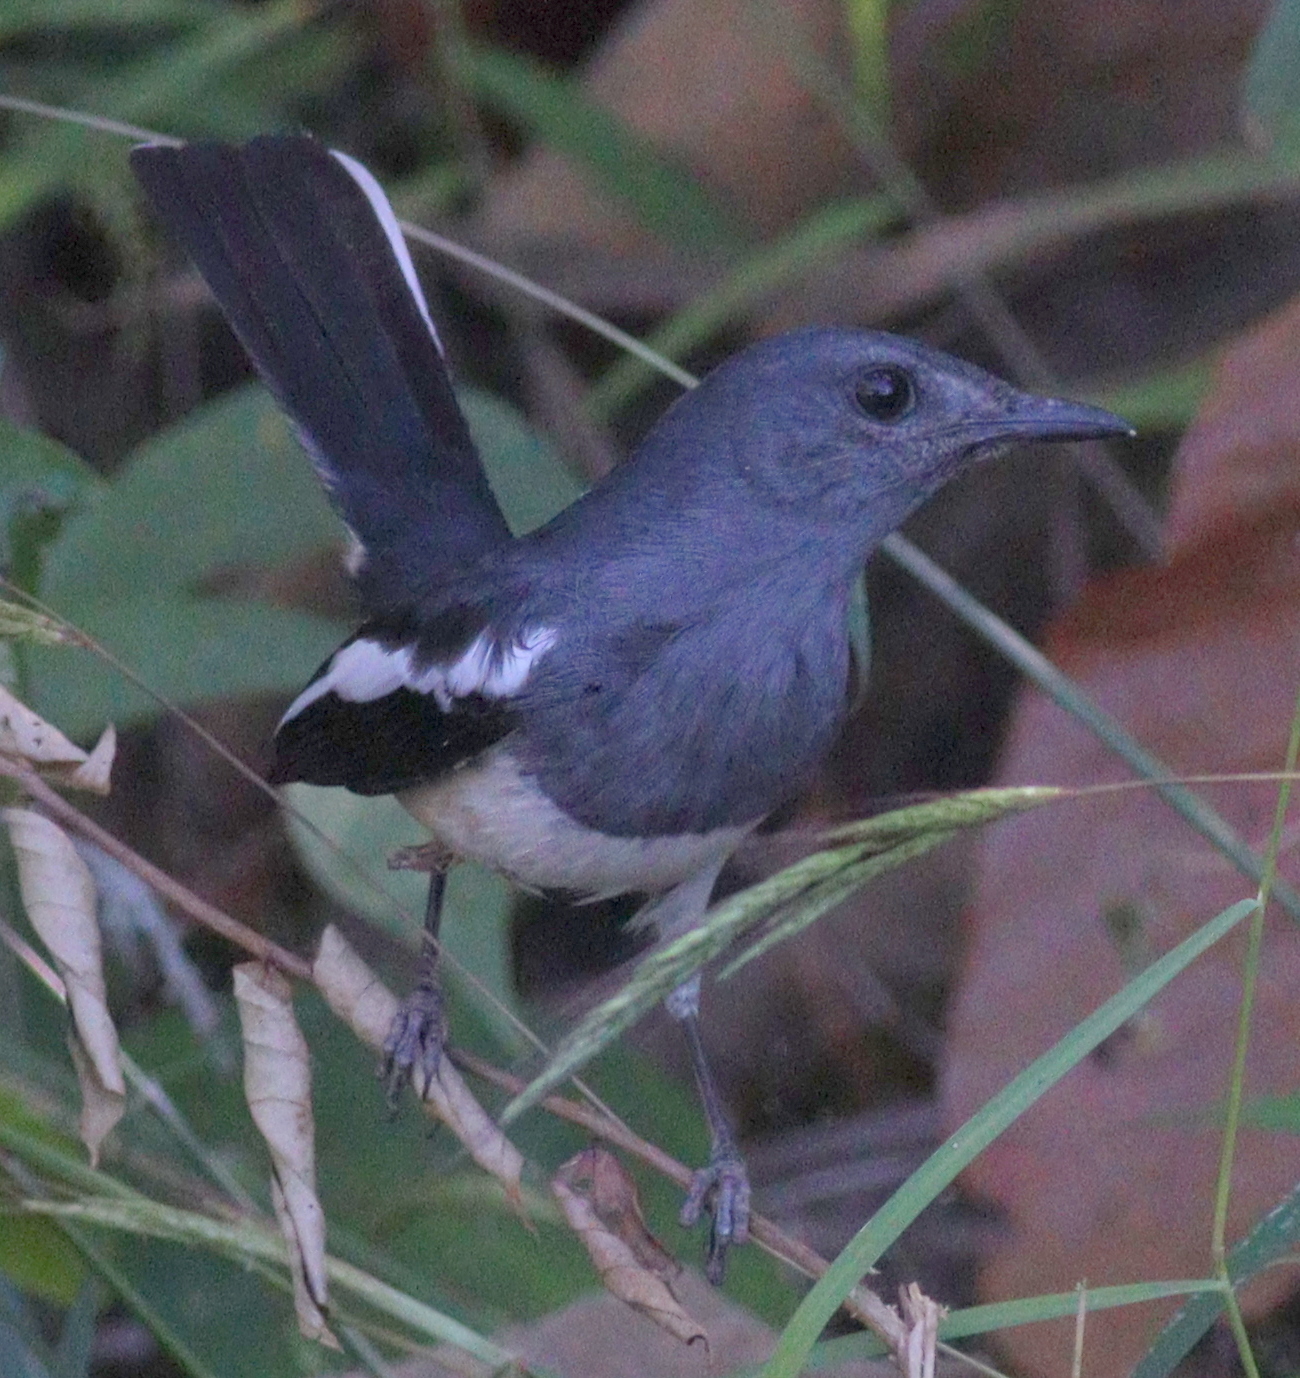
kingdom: Animalia
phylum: Chordata
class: Aves
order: Passeriformes
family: Muscicapidae
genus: Copsychus
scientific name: Copsychus saularis
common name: Oriental magpie-robin
